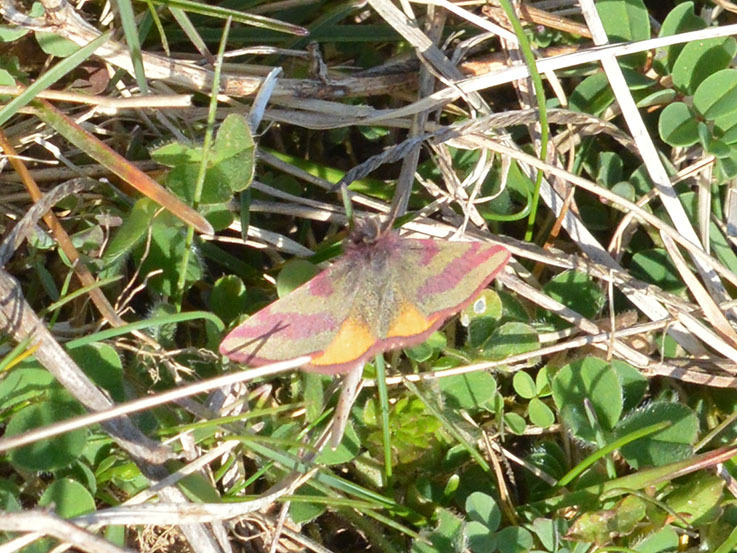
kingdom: Animalia
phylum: Arthropoda
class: Insecta
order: Lepidoptera
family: Geometridae
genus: Lythria
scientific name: Lythria cruentaria
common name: Purple-barred yellow
